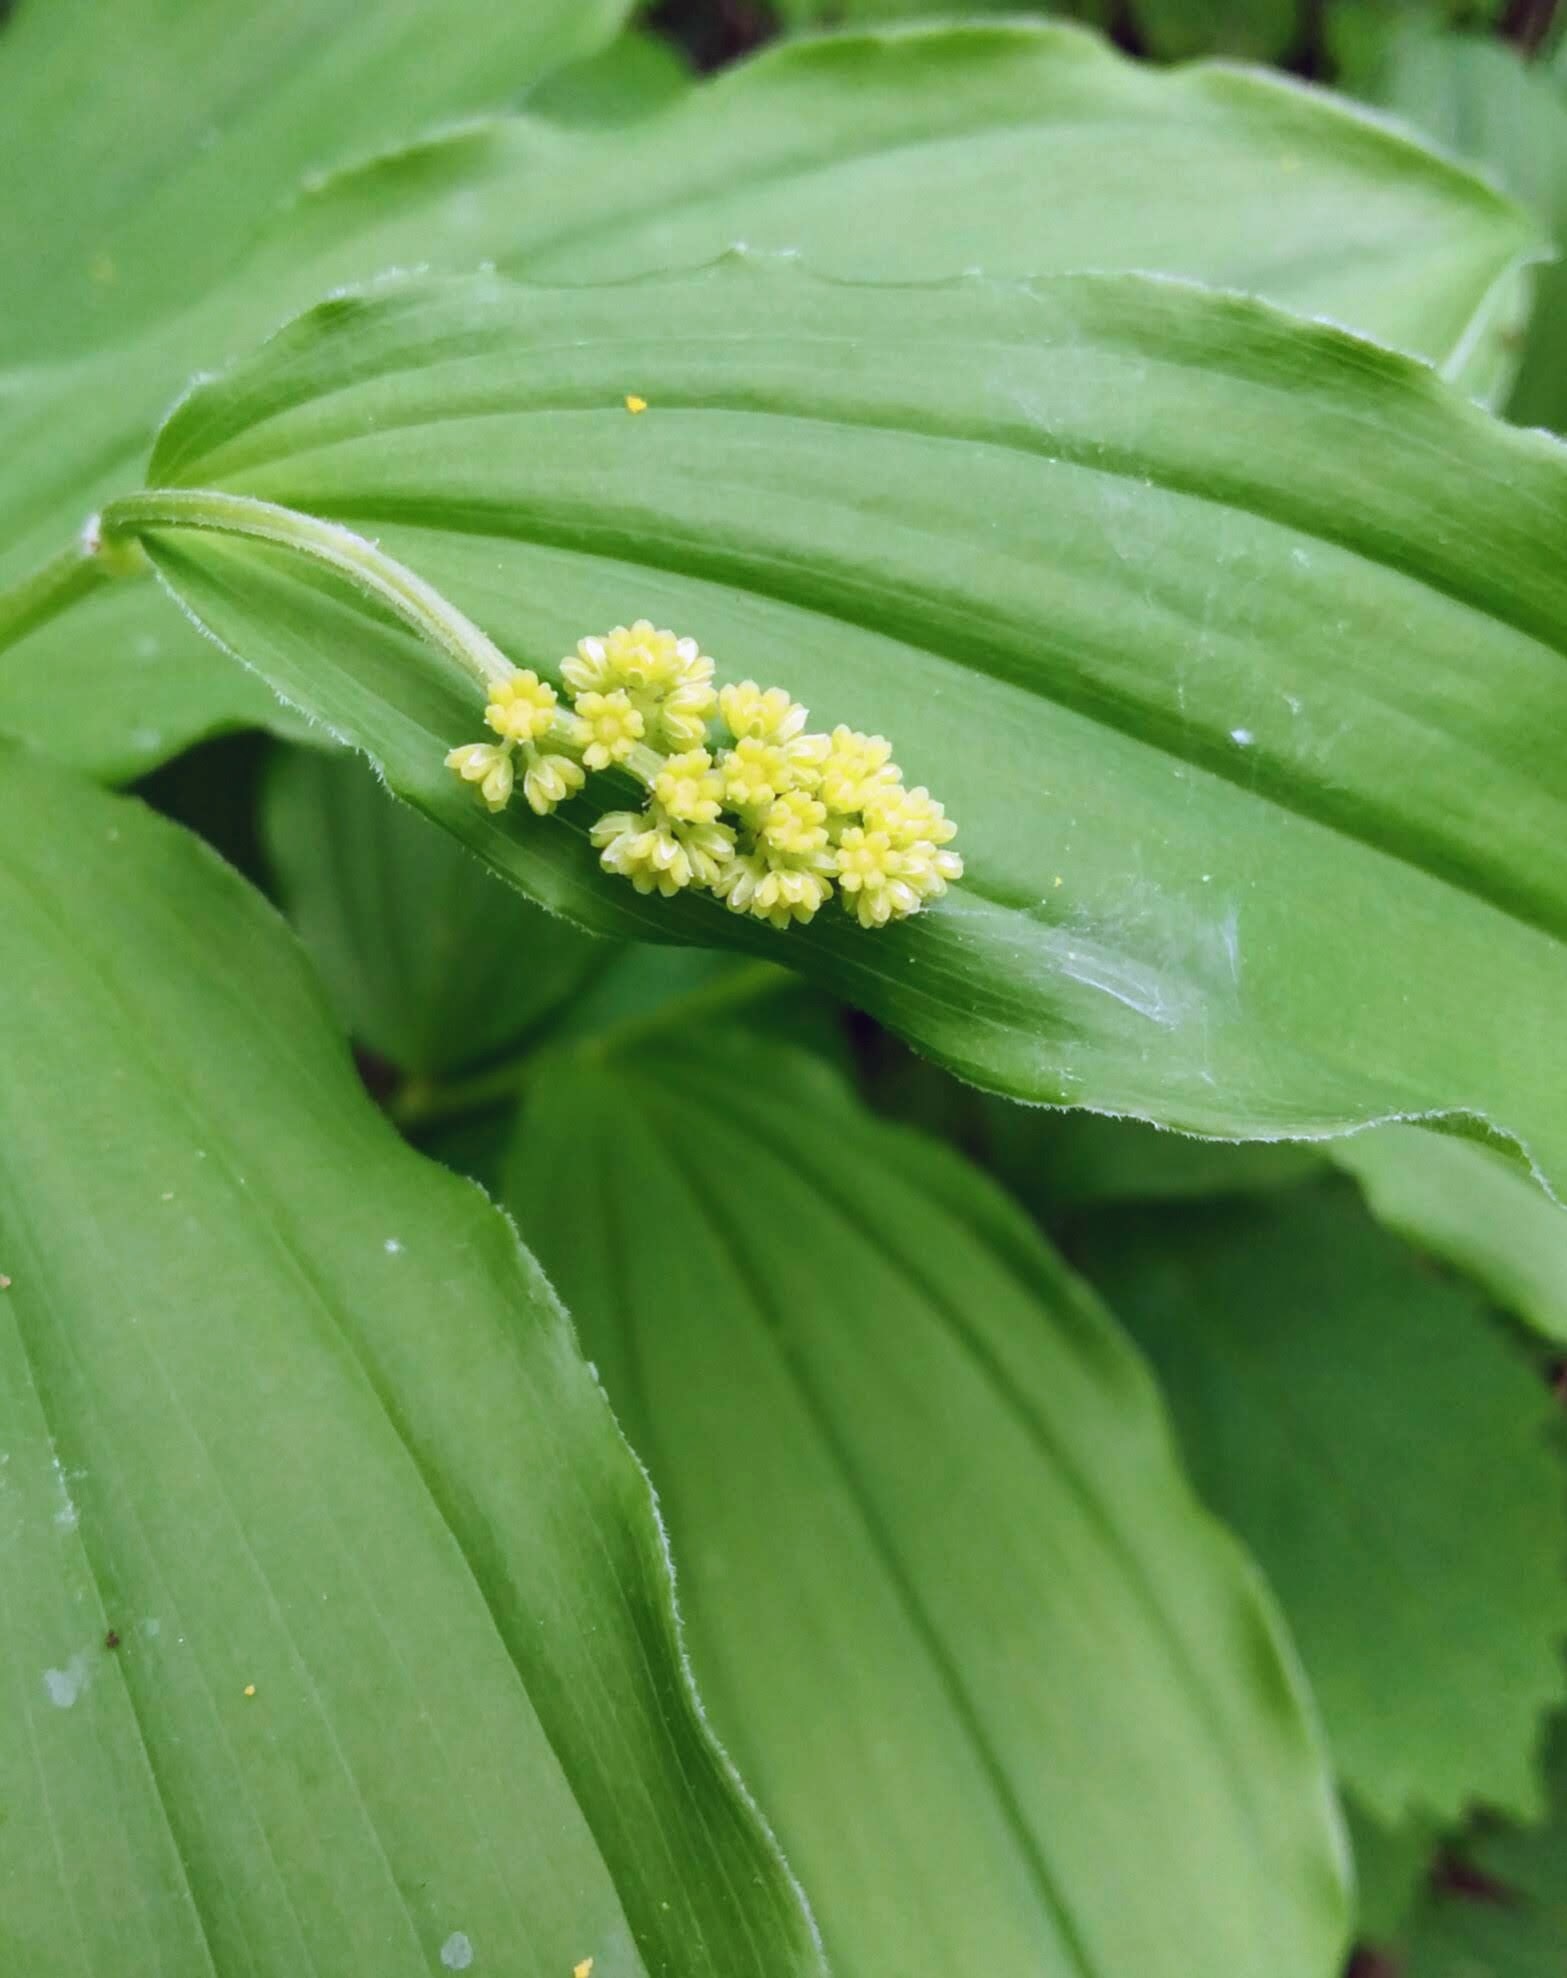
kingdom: Plantae
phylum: Tracheophyta
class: Liliopsida
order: Asparagales
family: Asparagaceae
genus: Maianthemum
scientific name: Maianthemum racemosum
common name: False spikenard
